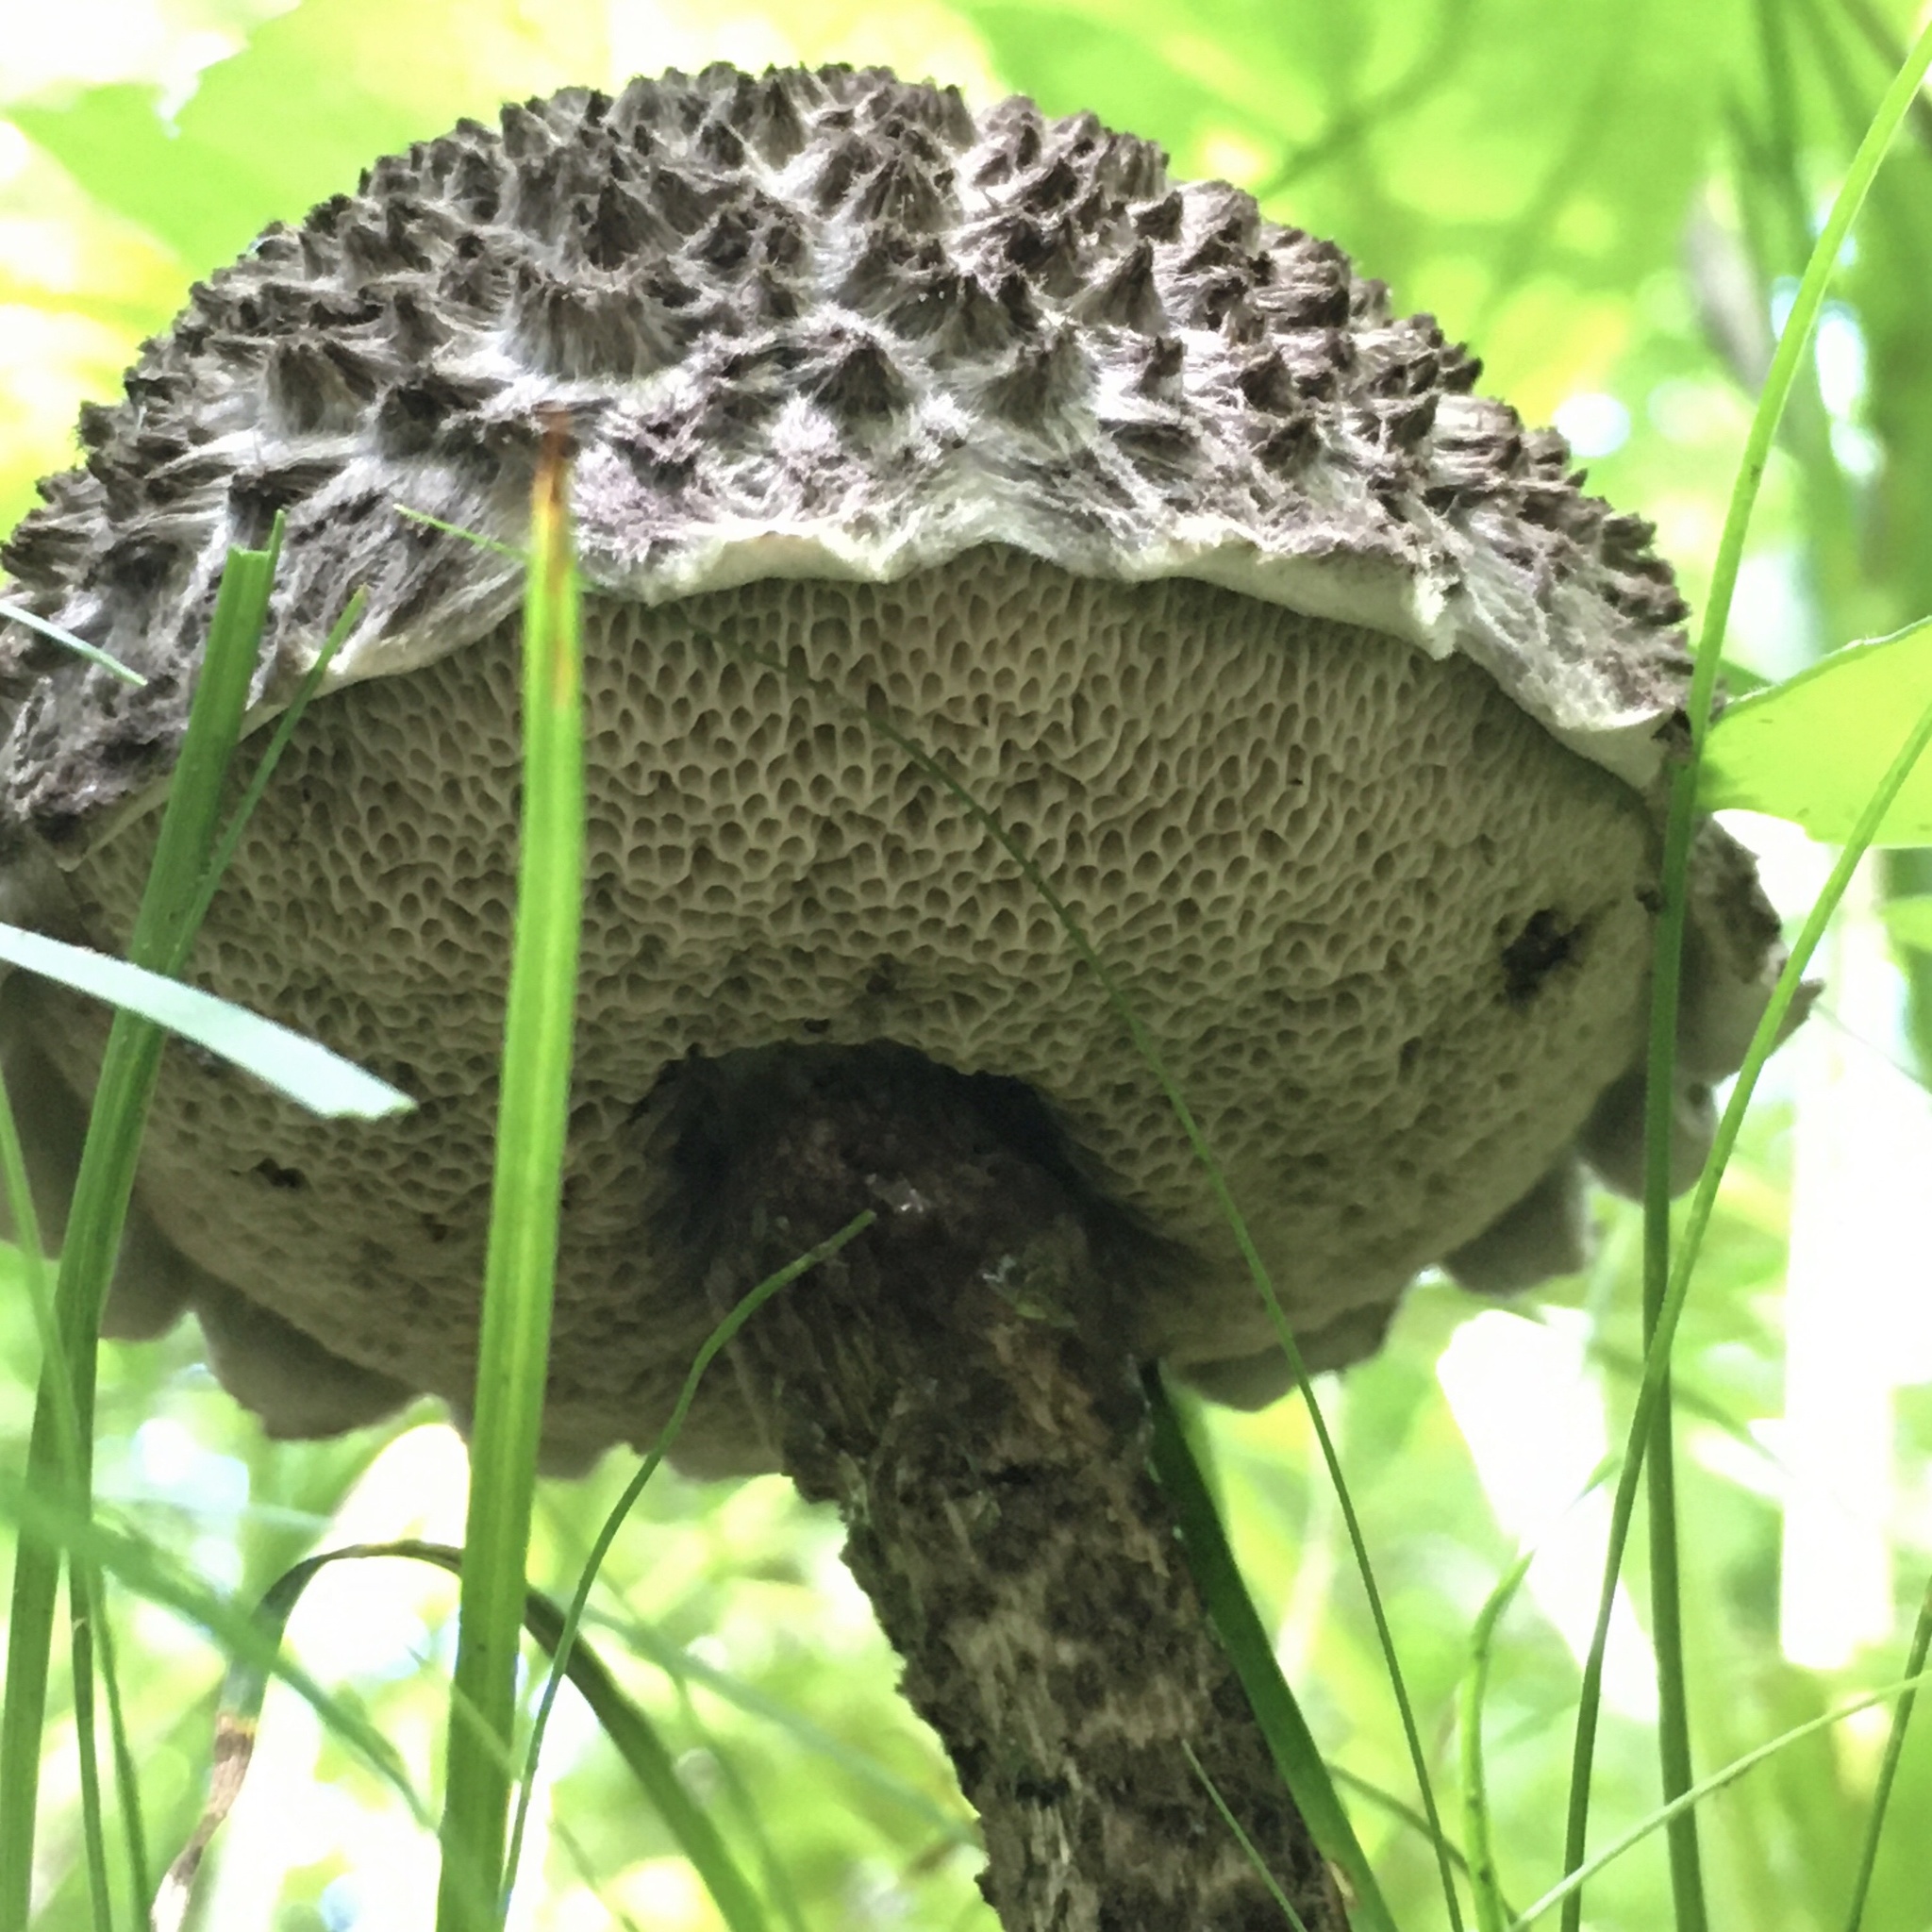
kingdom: Fungi
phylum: Basidiomycota
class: Agaricomycetes
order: Boletales
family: Boletaceae
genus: Strobilomyces
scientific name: Strobilomyces strobilaceus
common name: Old man of the woods
